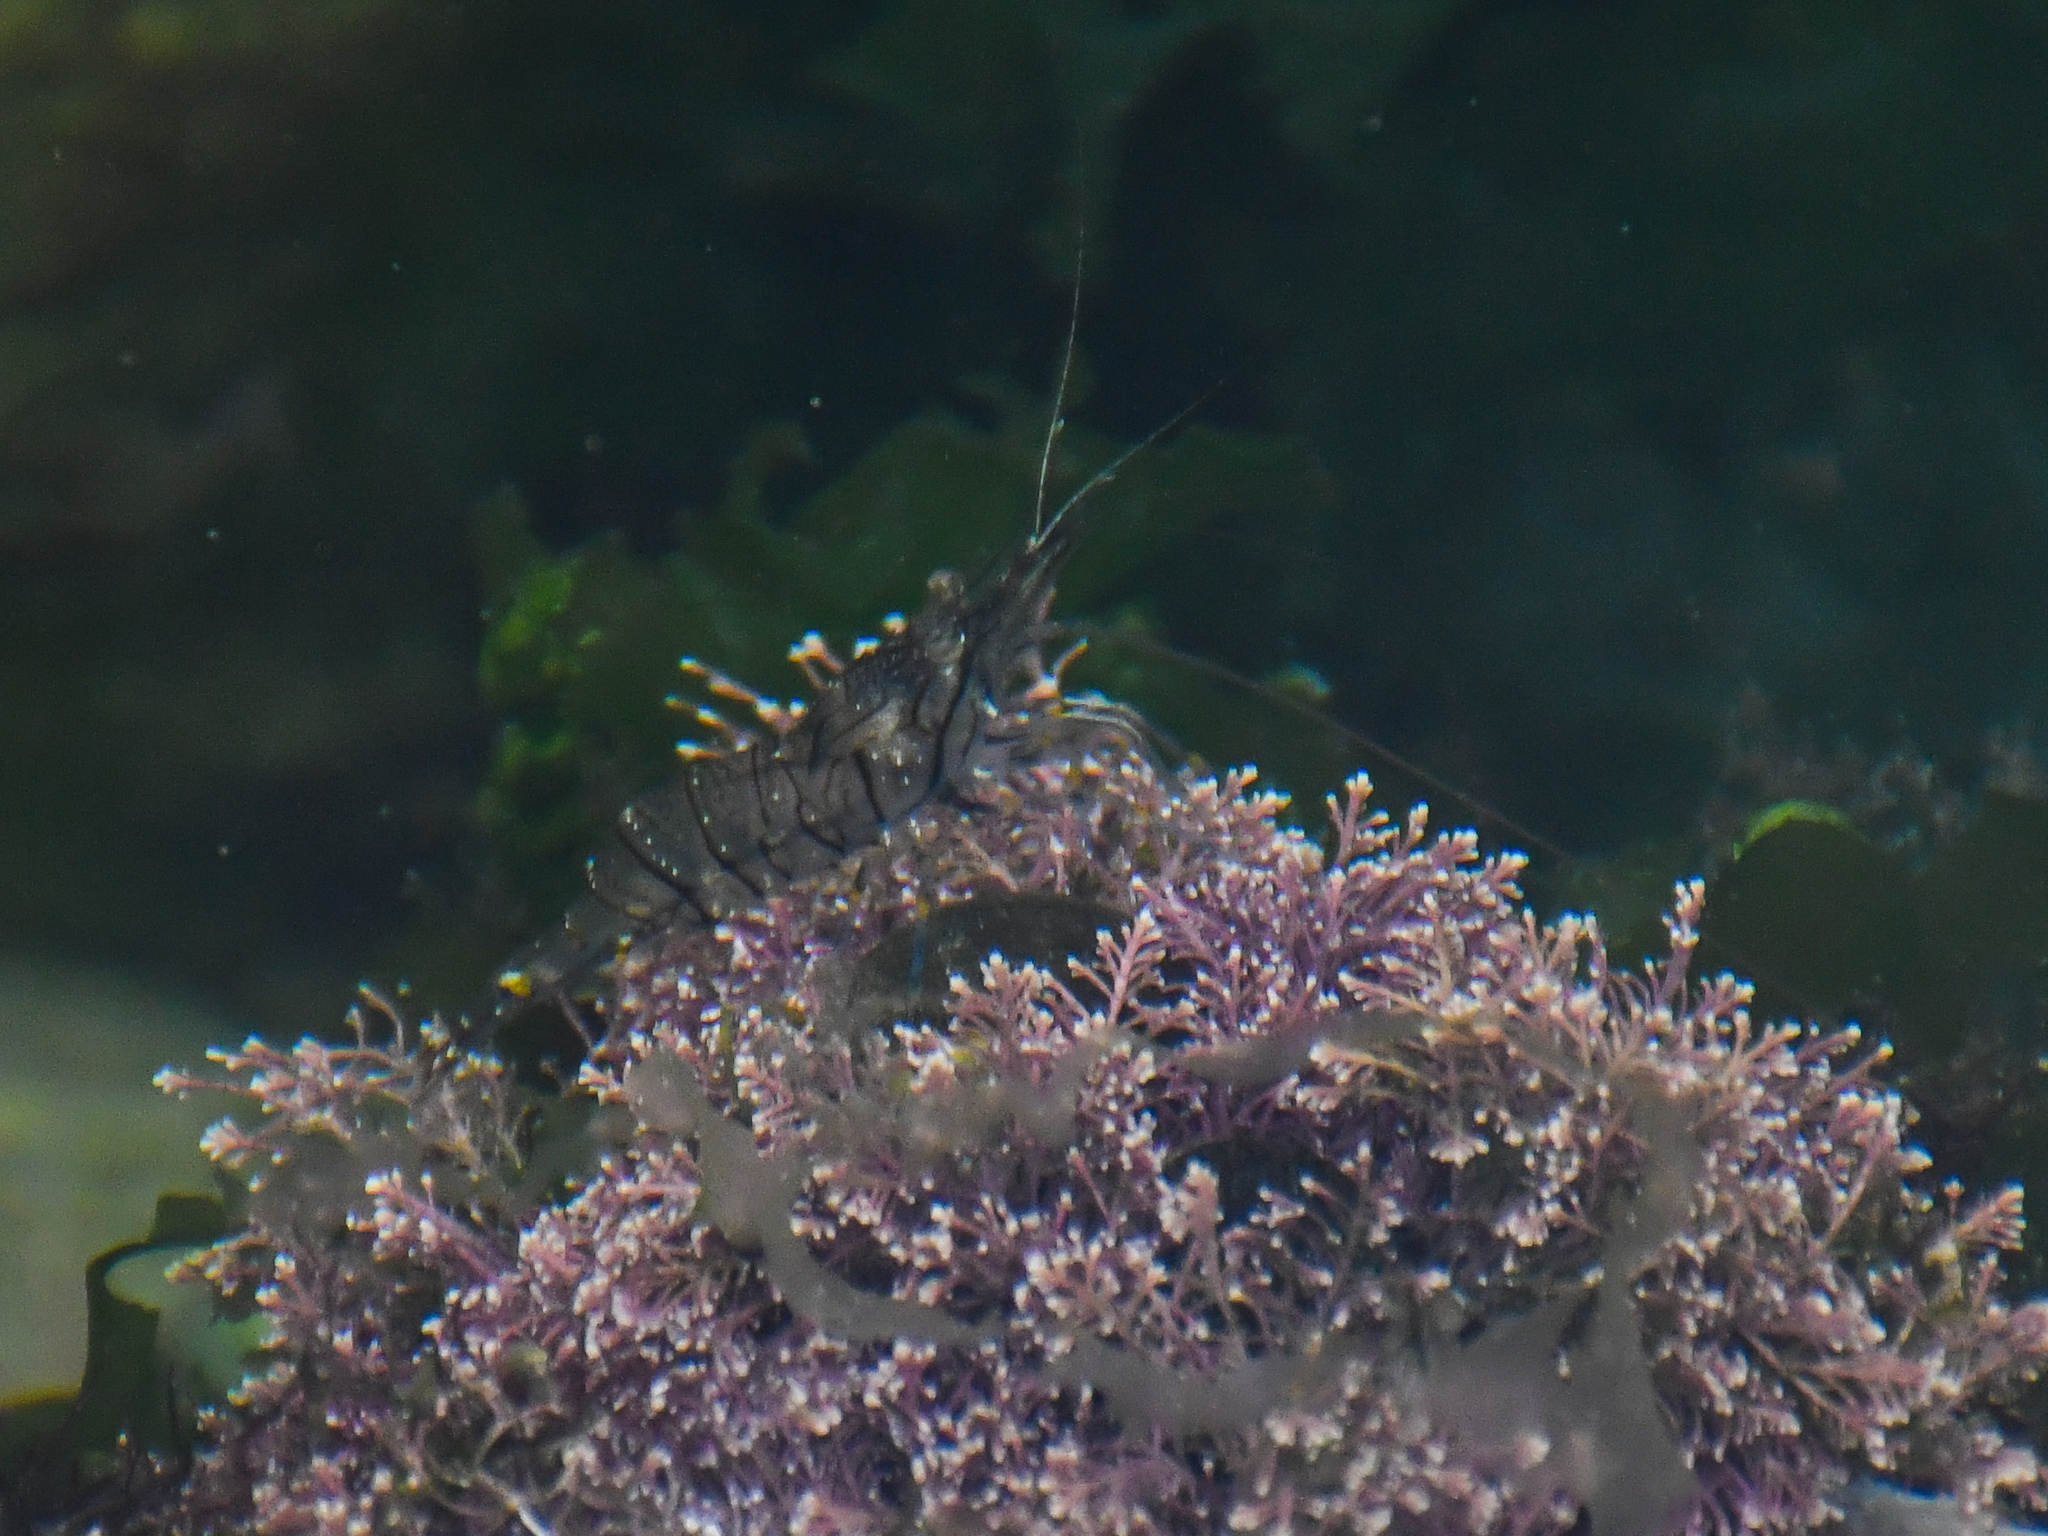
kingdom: Animalia
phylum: Arthropoda
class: Malacostraca
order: Decapoda
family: Palaemonidae
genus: Palaemon
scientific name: Palaemon elegans
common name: Grass prawm
